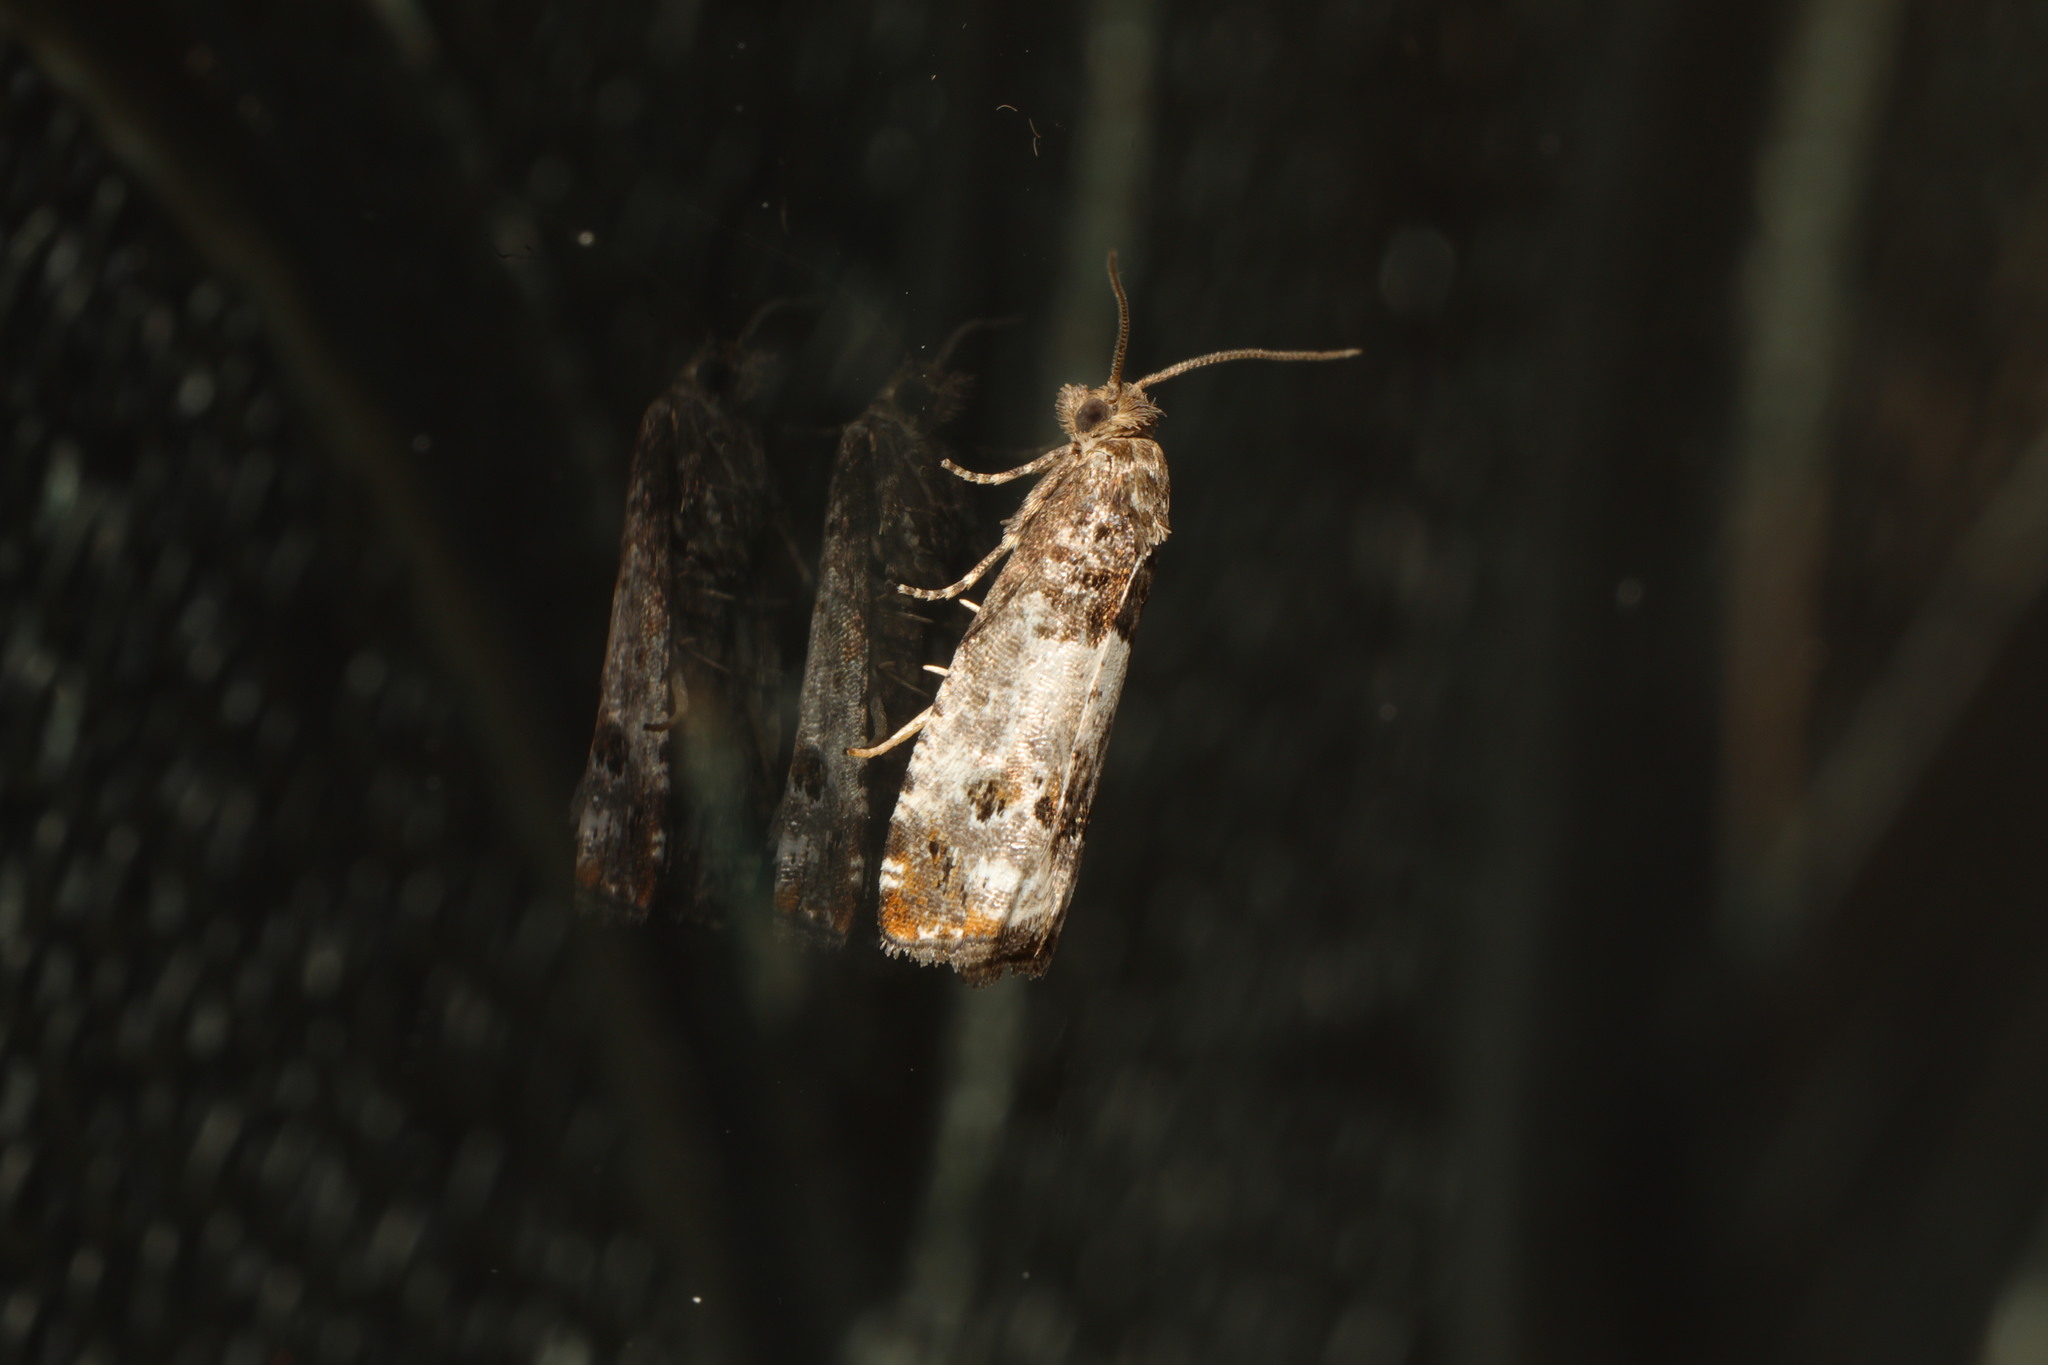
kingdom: Animalia
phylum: Arthropoda
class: Insecta
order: Lepidoptera
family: Tortricidae
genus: Notocelia
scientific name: Notocelia rosaecolana
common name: Common rose bell
